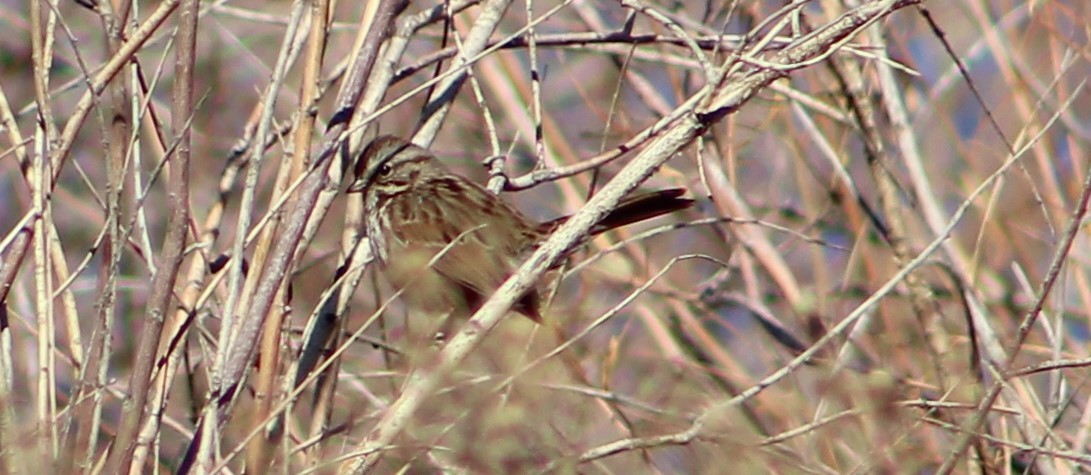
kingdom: Animalia
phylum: Chordata
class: Aves
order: Passeriformes
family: Passerellidae
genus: Melospiza
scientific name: Melospiza melodia
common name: Song sparrow
